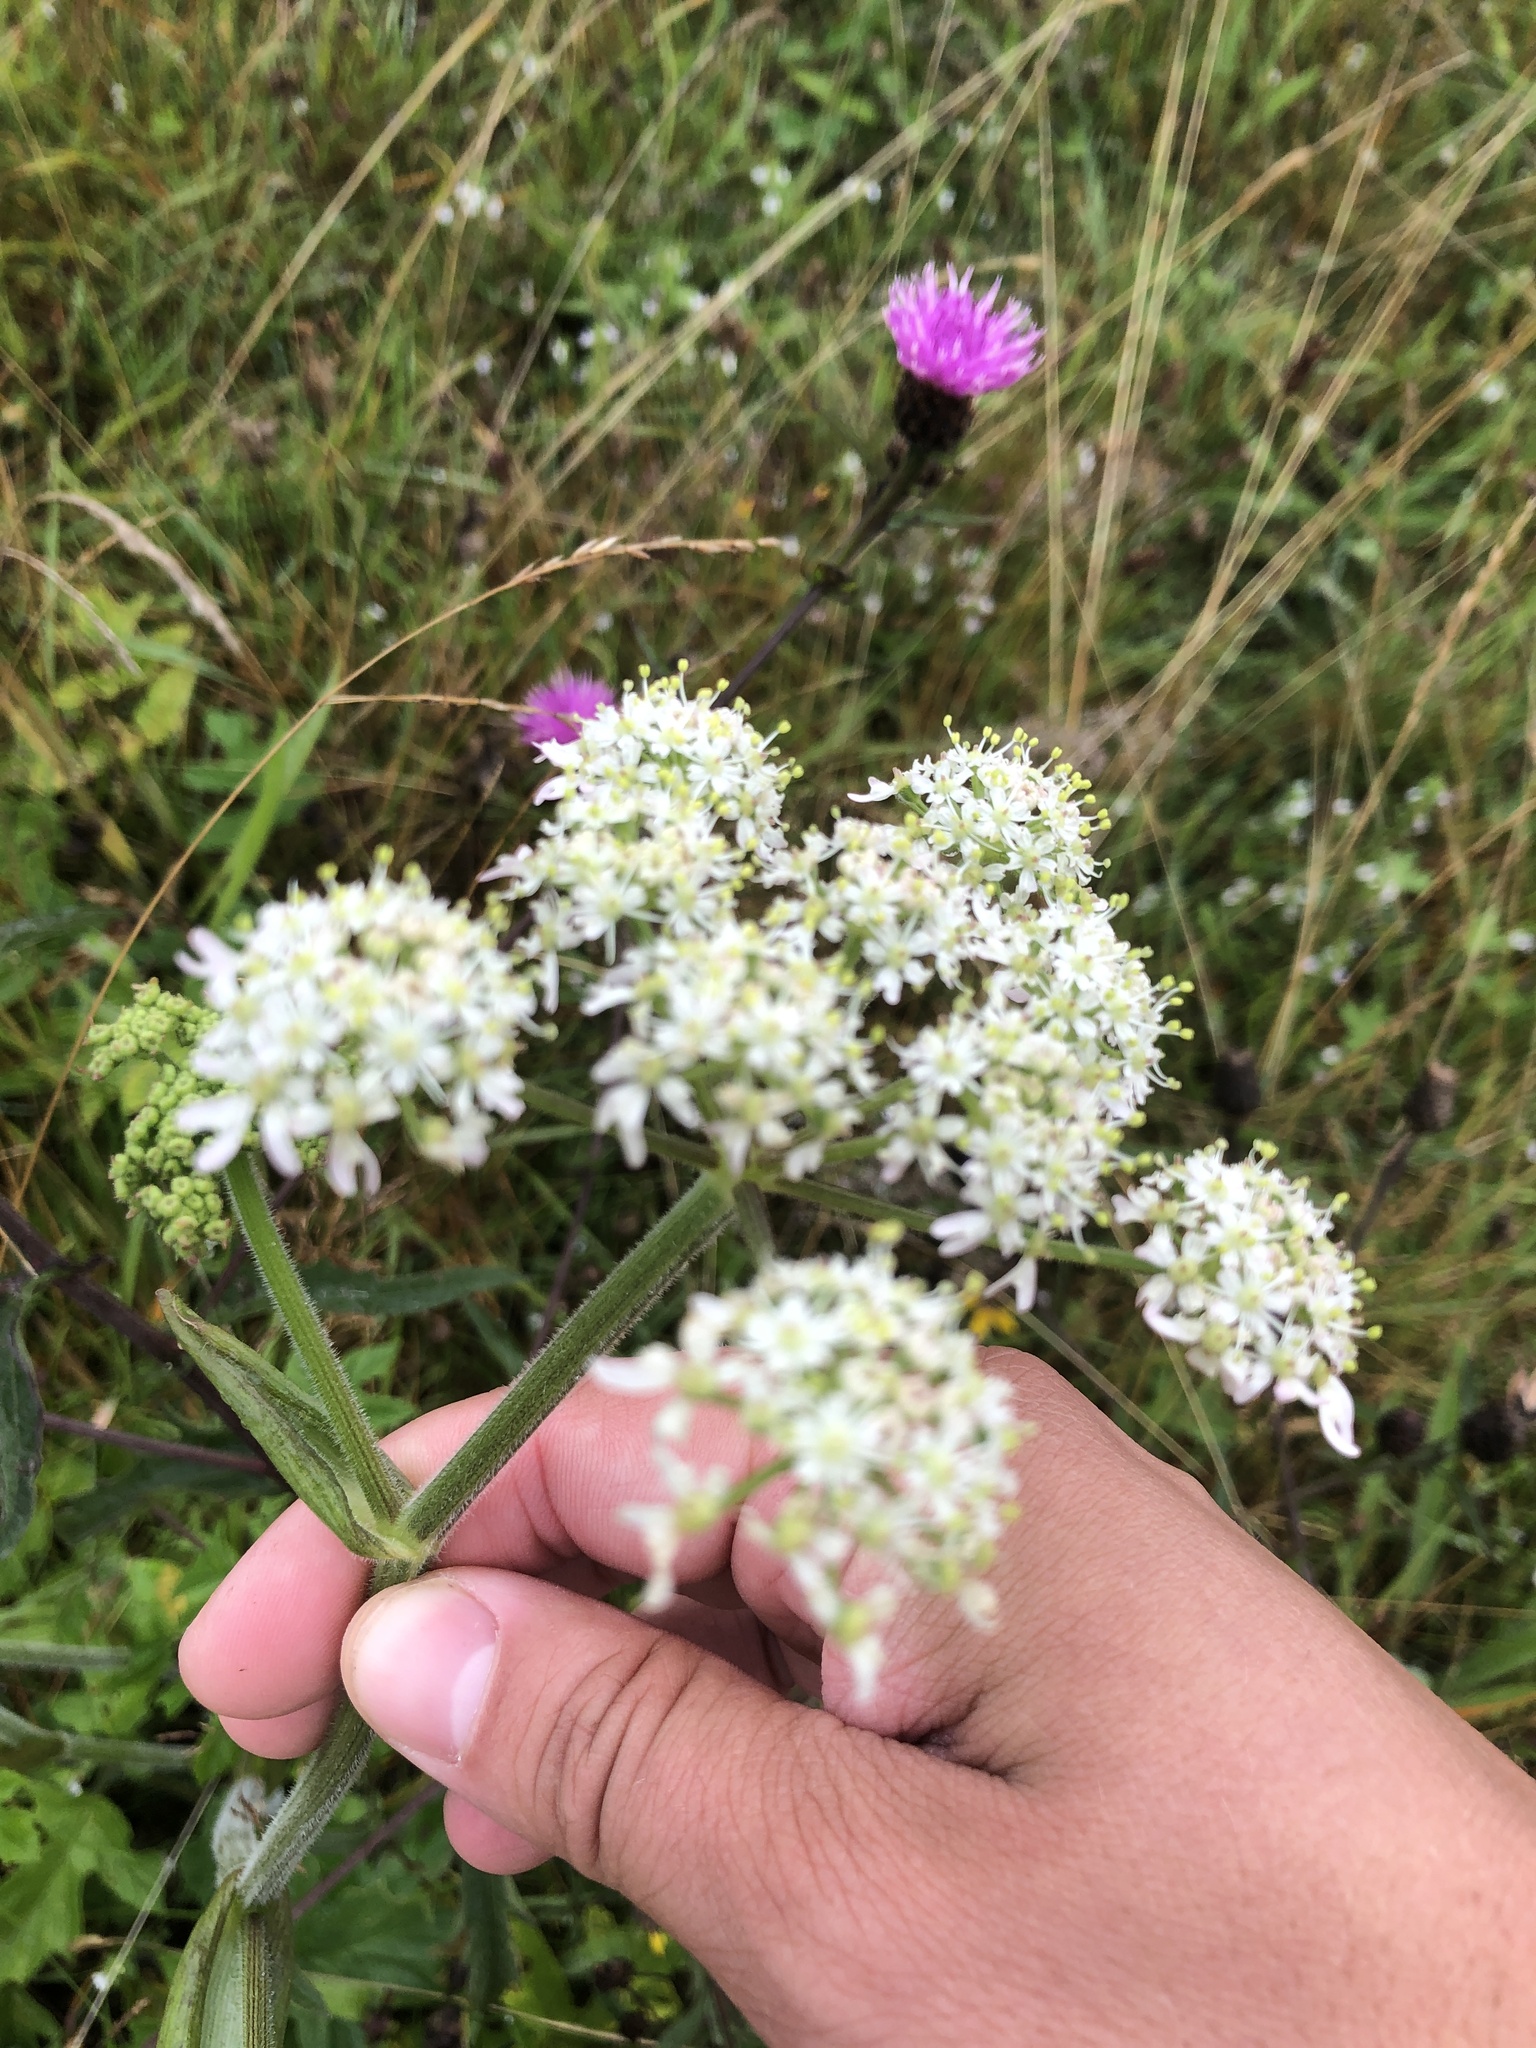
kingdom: Plantae
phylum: Tracheophyta
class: Magnoliopsida
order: Apiales
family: Apiaceae
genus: Heracleum
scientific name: Heracleum sphondylium
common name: Hogweed
